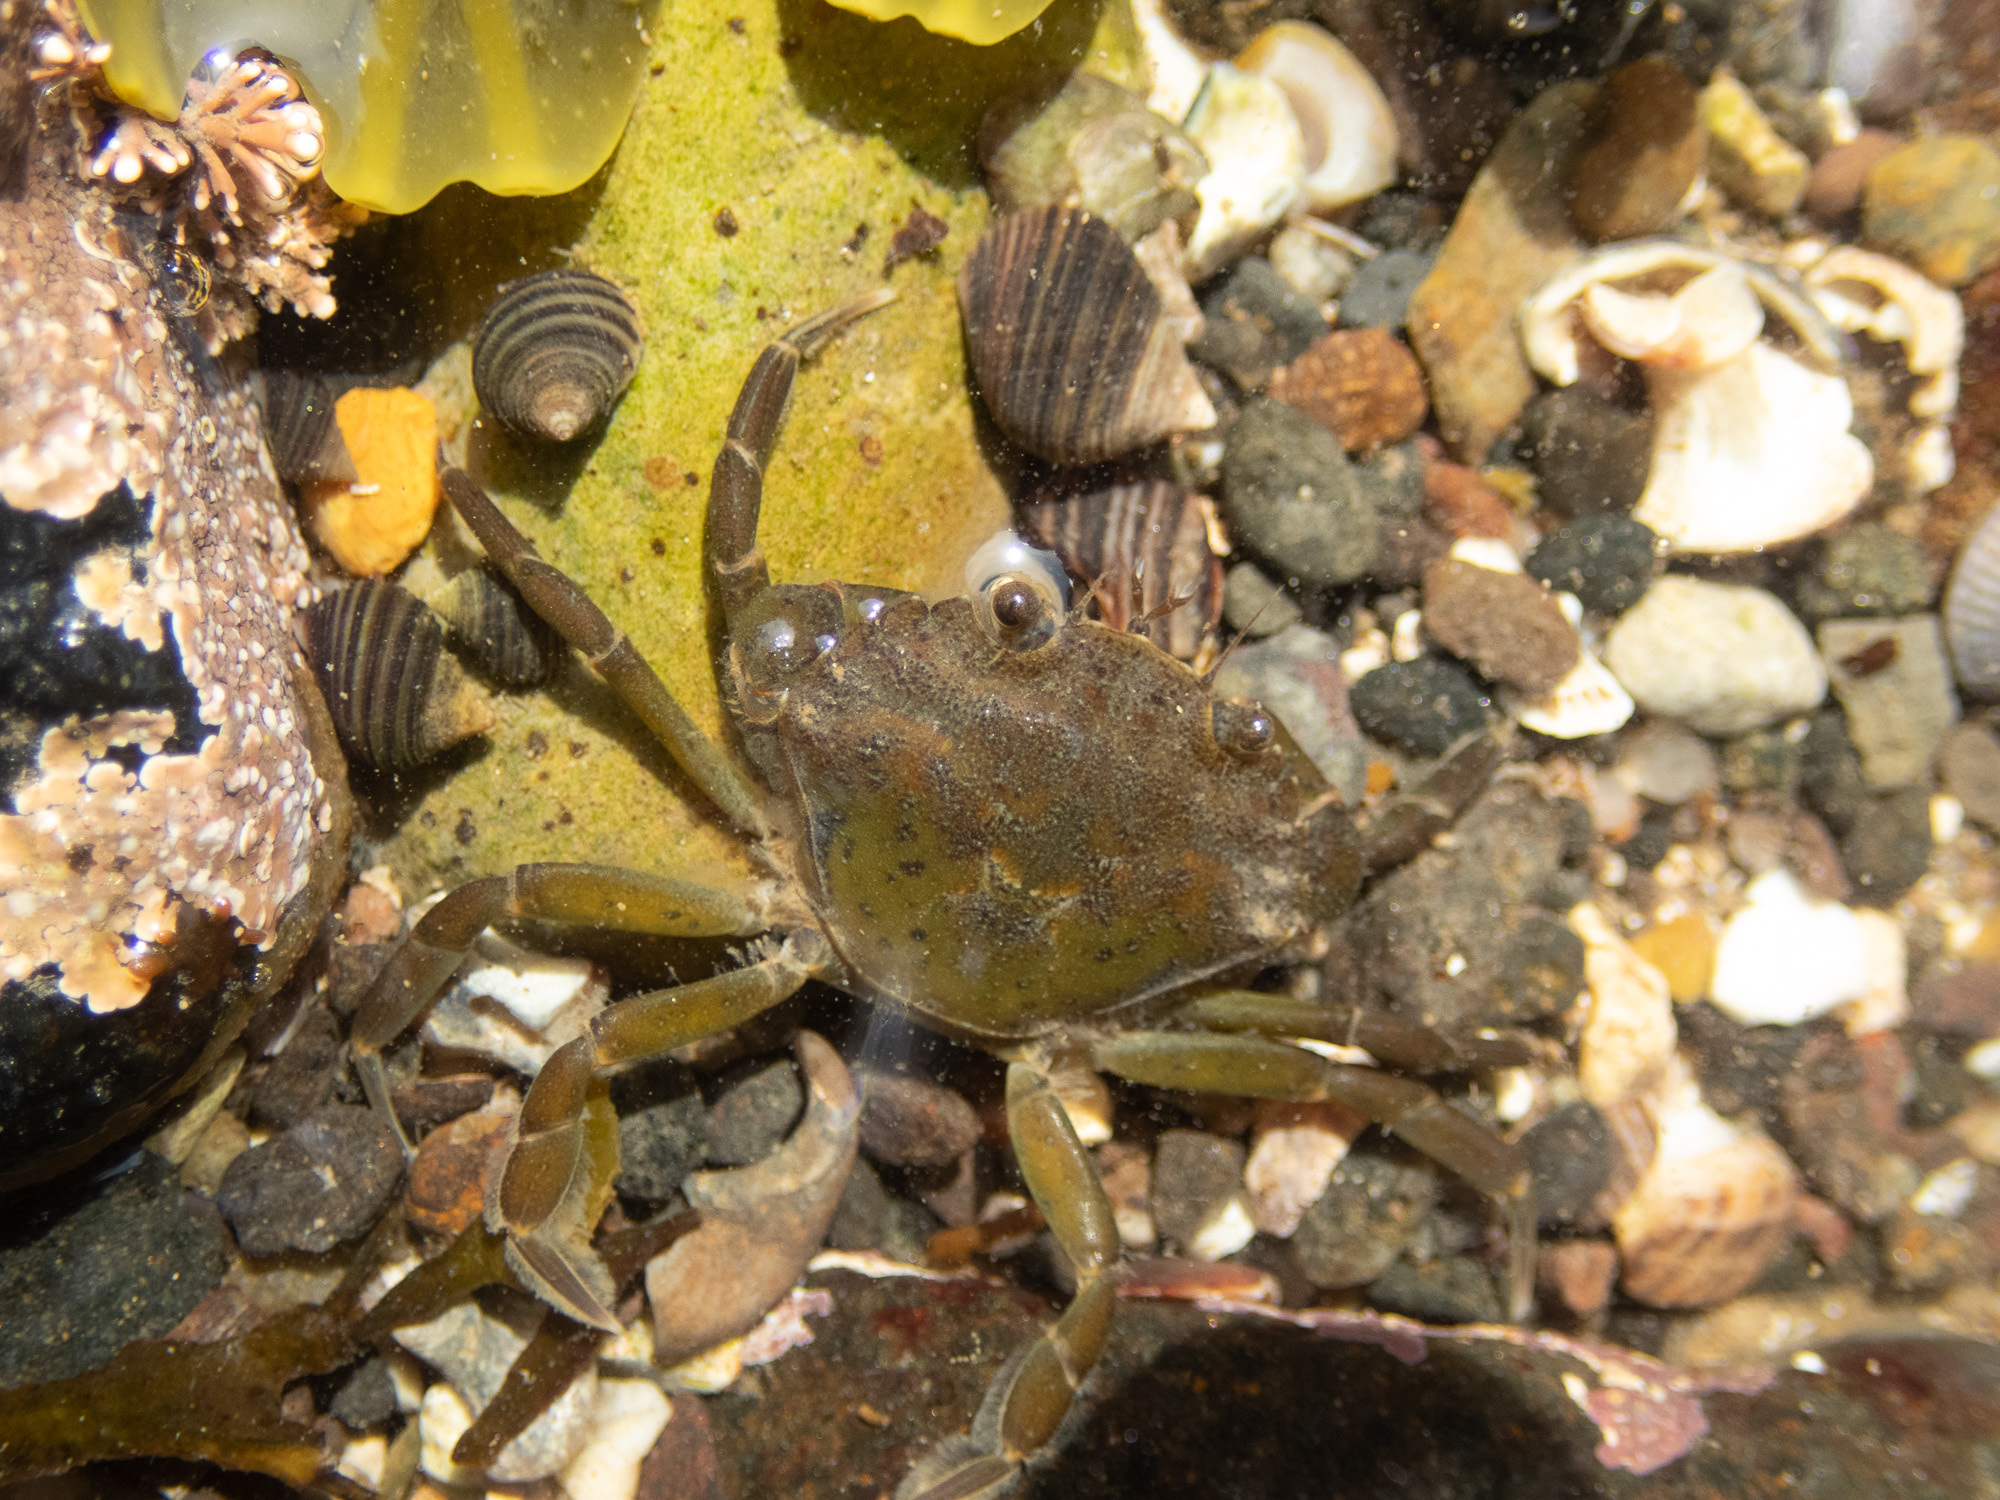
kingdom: Animalia
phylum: Arthropoda
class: Malacostraca
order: Decapoda
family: Carcinidae
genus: Carcinus
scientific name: Carcinus maenas
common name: European green crab
